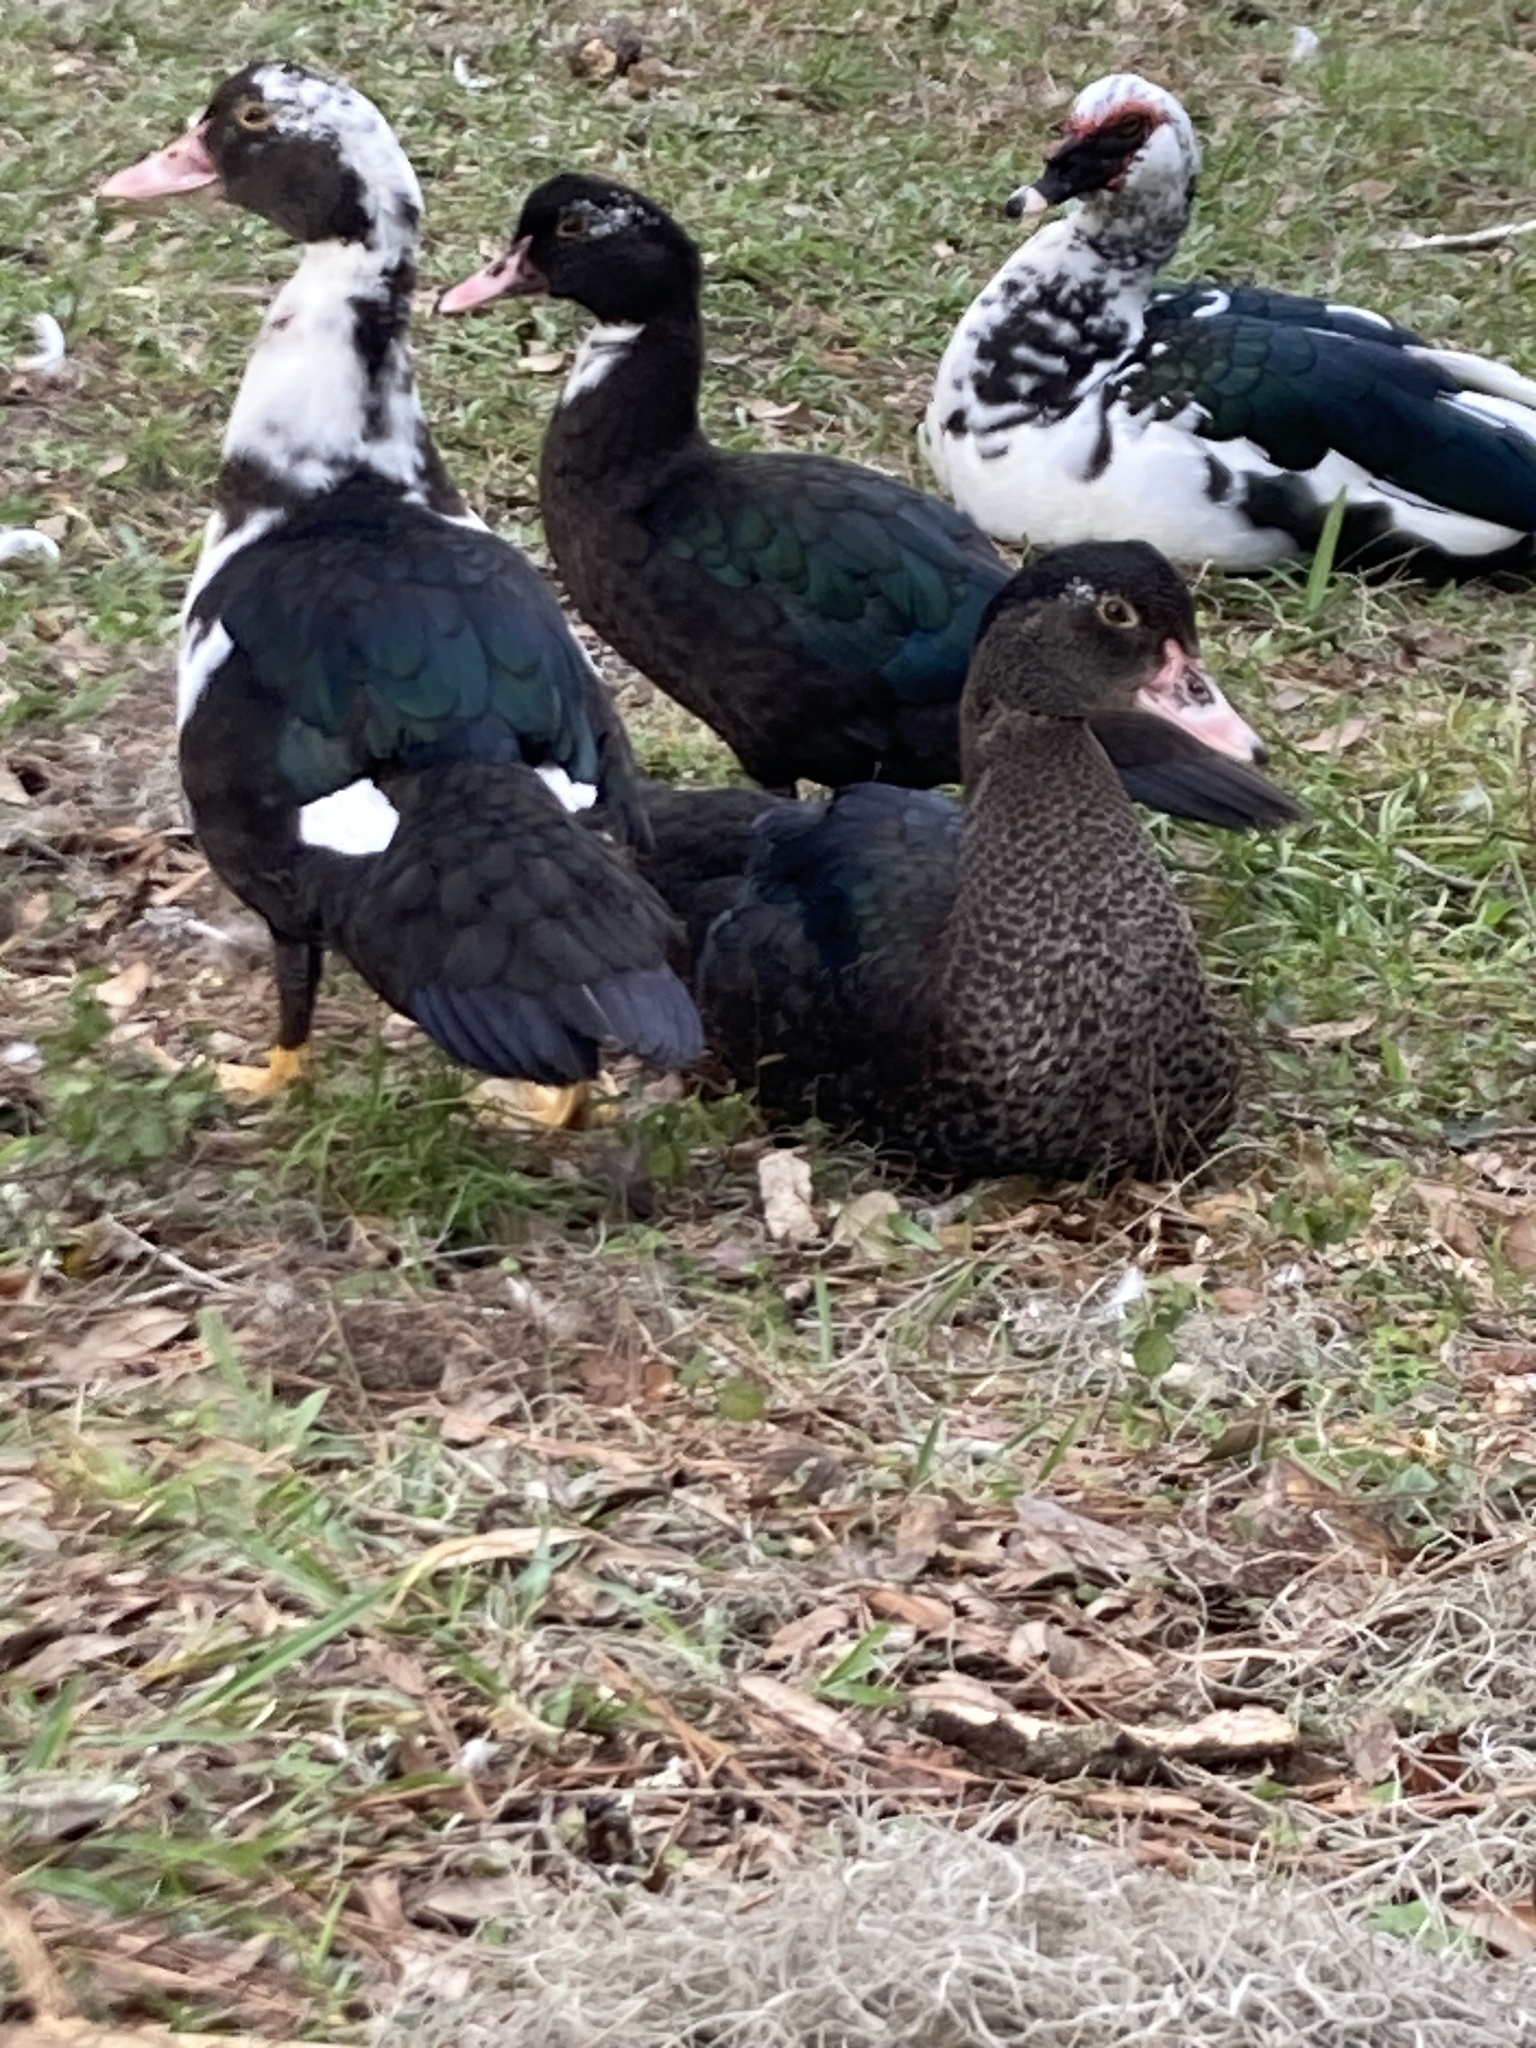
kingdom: Animalia
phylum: Chordata
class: Aves
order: Anseriformes
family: Anatidae
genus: Cairina
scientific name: Cairina moschata
